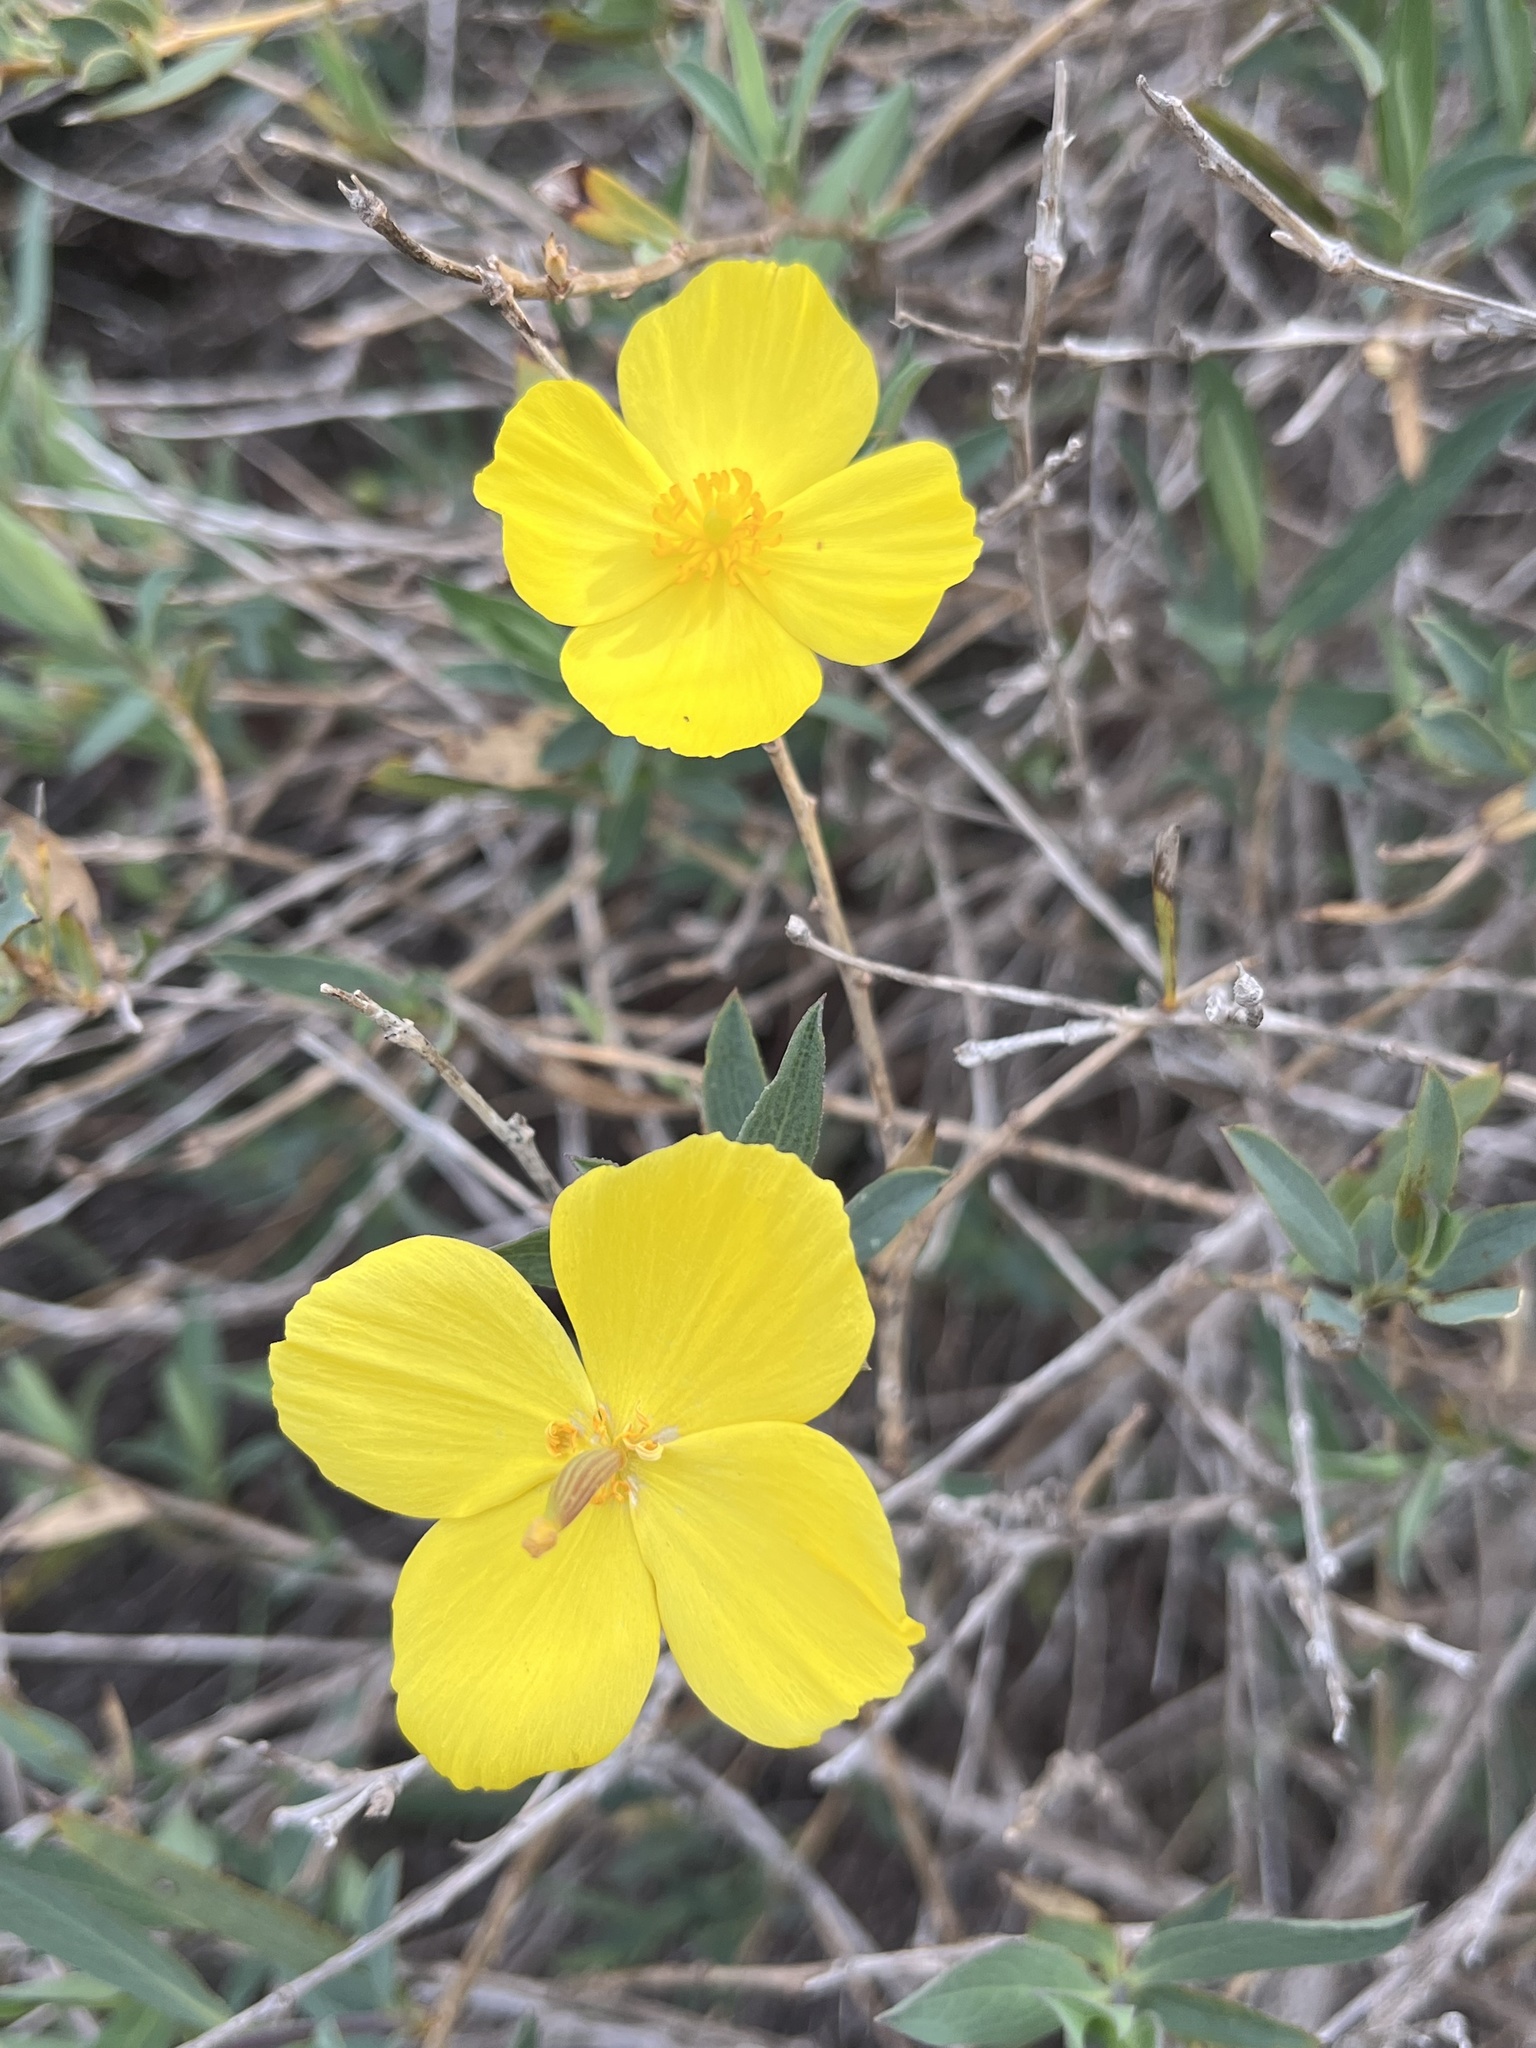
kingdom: Plantae
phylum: Tracheophyta
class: Magnoliopsida
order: Ranunculales
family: Papaveraceae
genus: Dendromecon
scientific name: Dendromecon rigida
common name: Tree poppy
